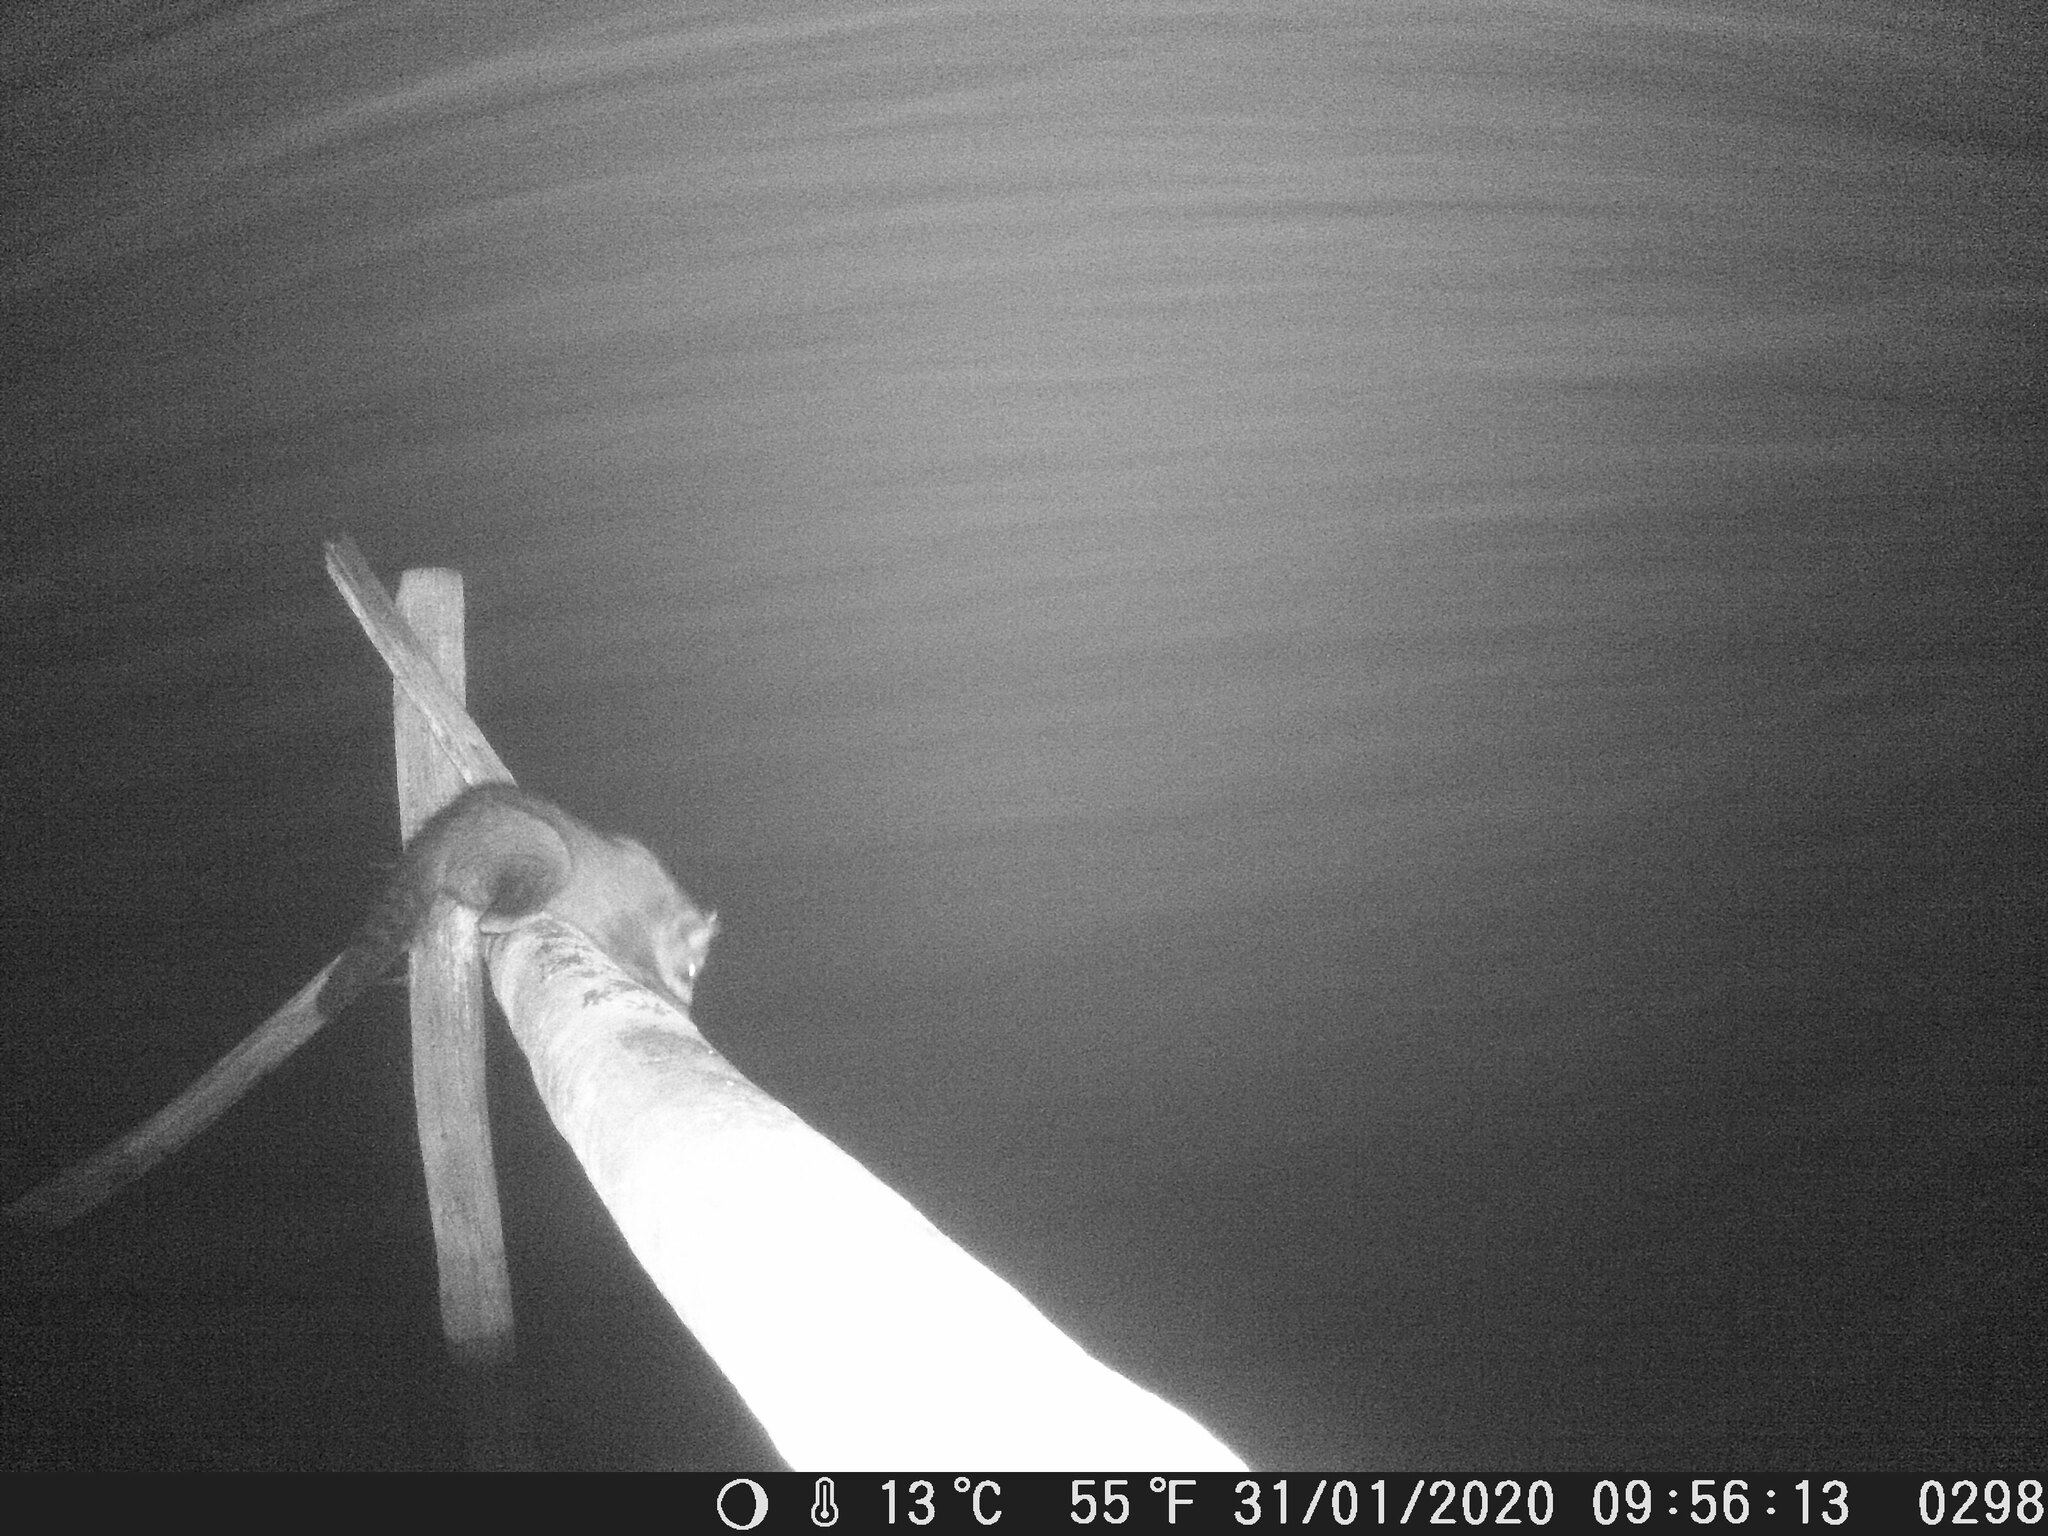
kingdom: Animalia
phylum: Chordata
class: Mammalia
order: Carnivora
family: Procyonidae
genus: Procyon
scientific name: Procyon cancrivorus
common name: Crab-eating raccoon
